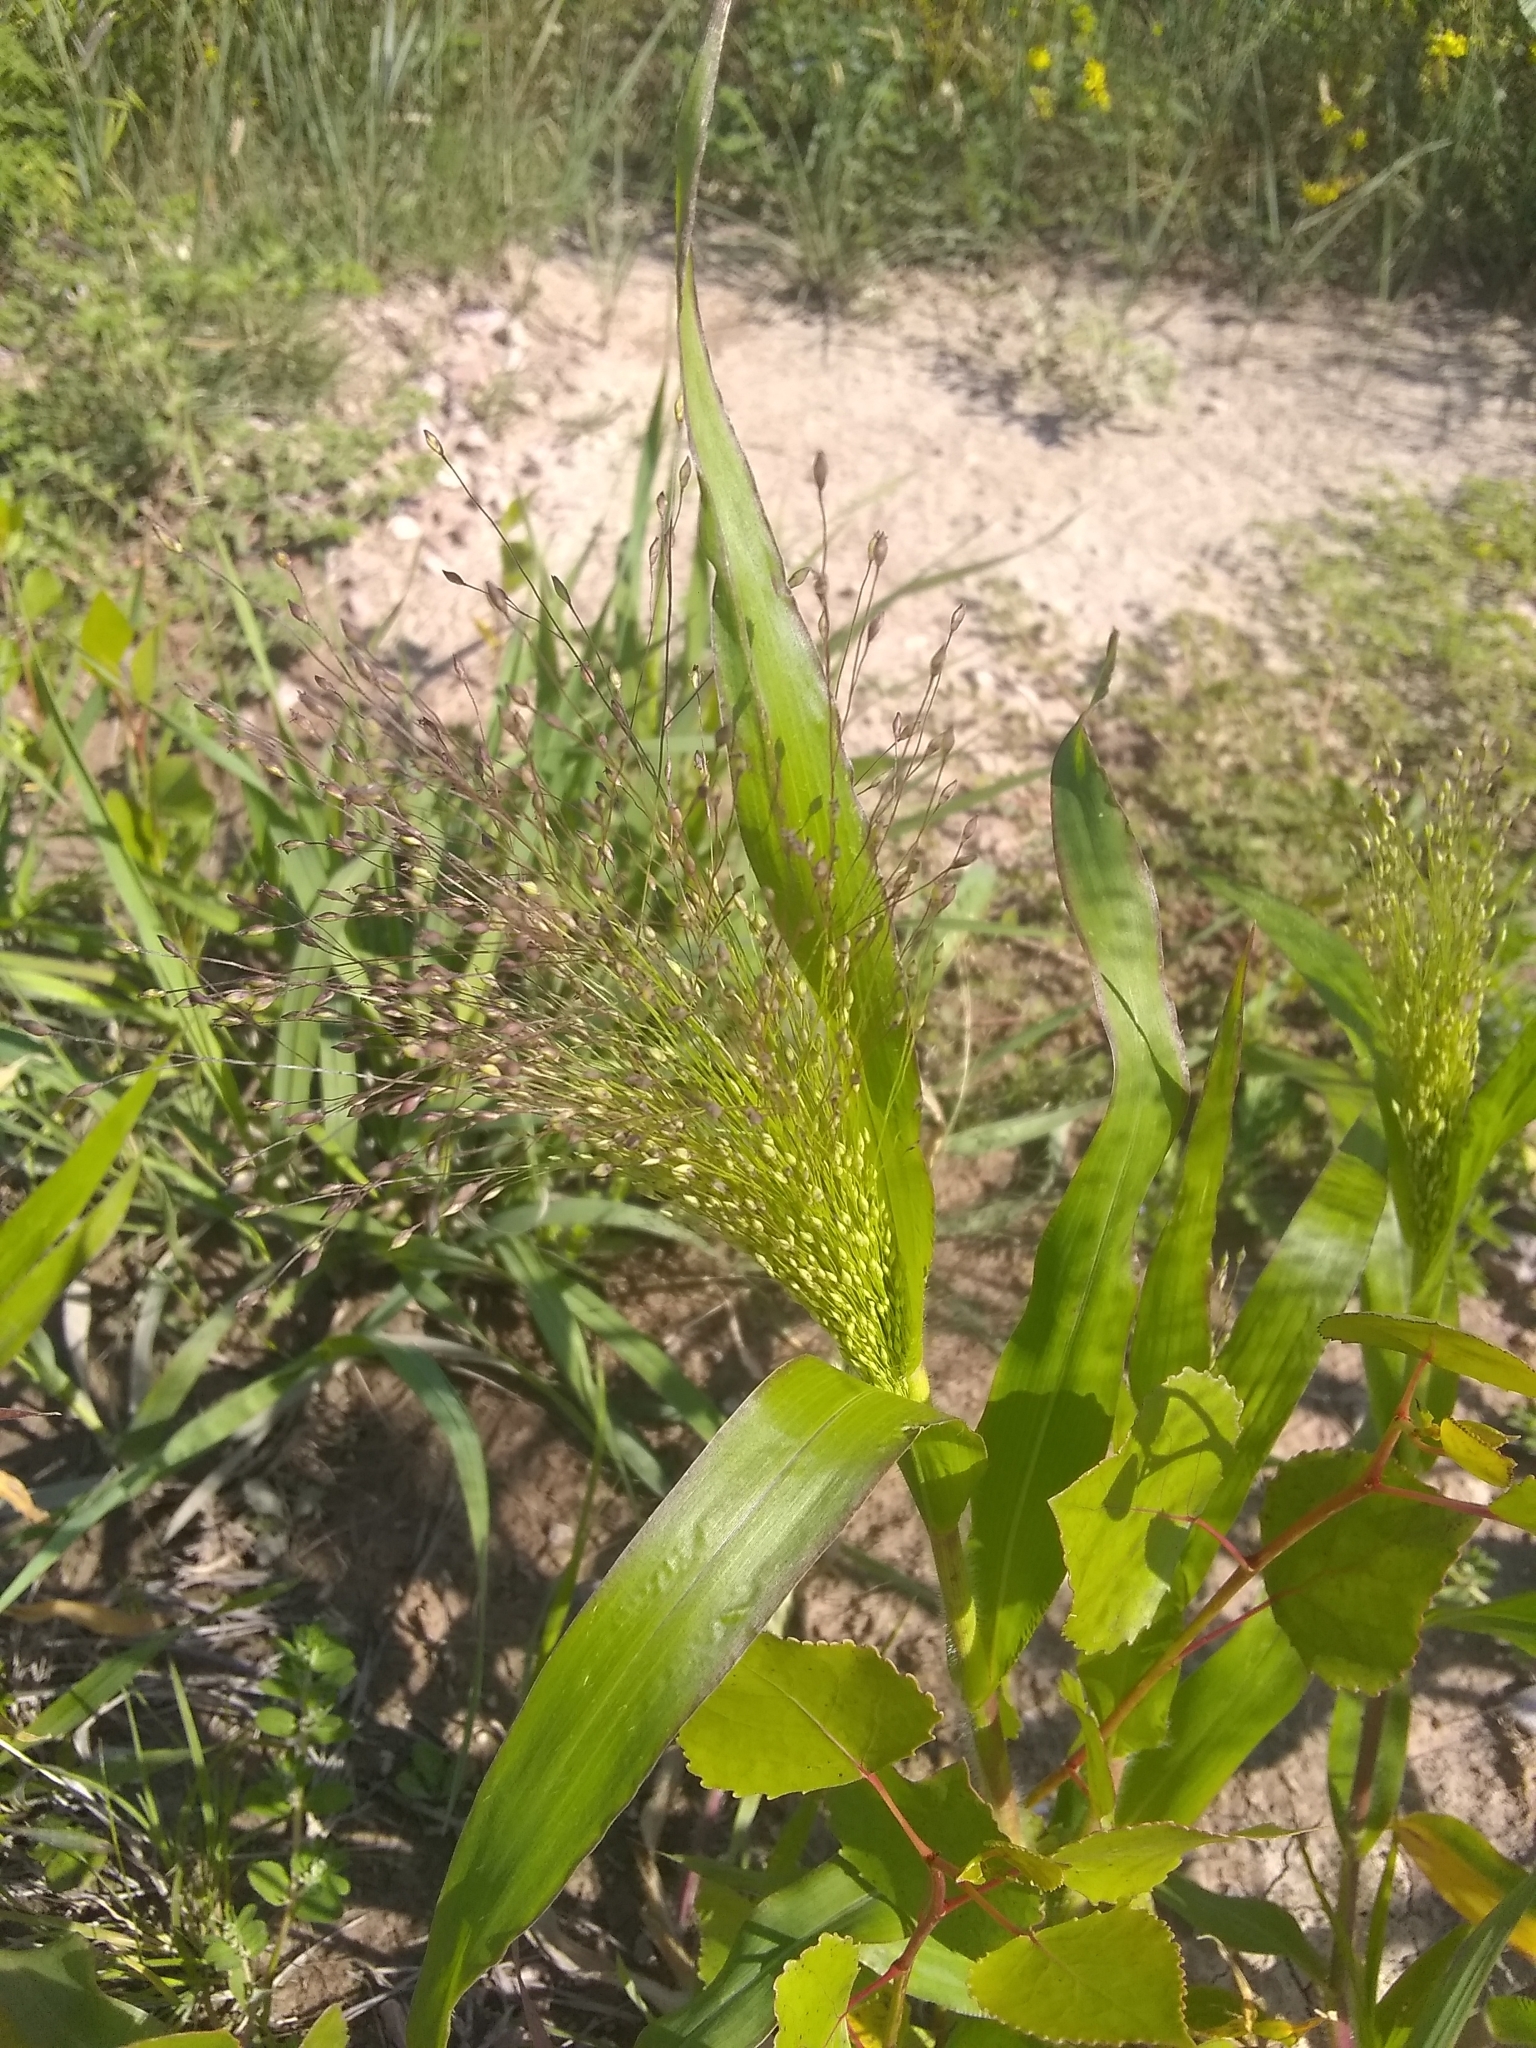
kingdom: Plantae
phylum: Tracheophyta
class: Liliopsida
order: Poales
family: Poaceae
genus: Panicum
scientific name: Panicum capillare
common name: Witch-grass
